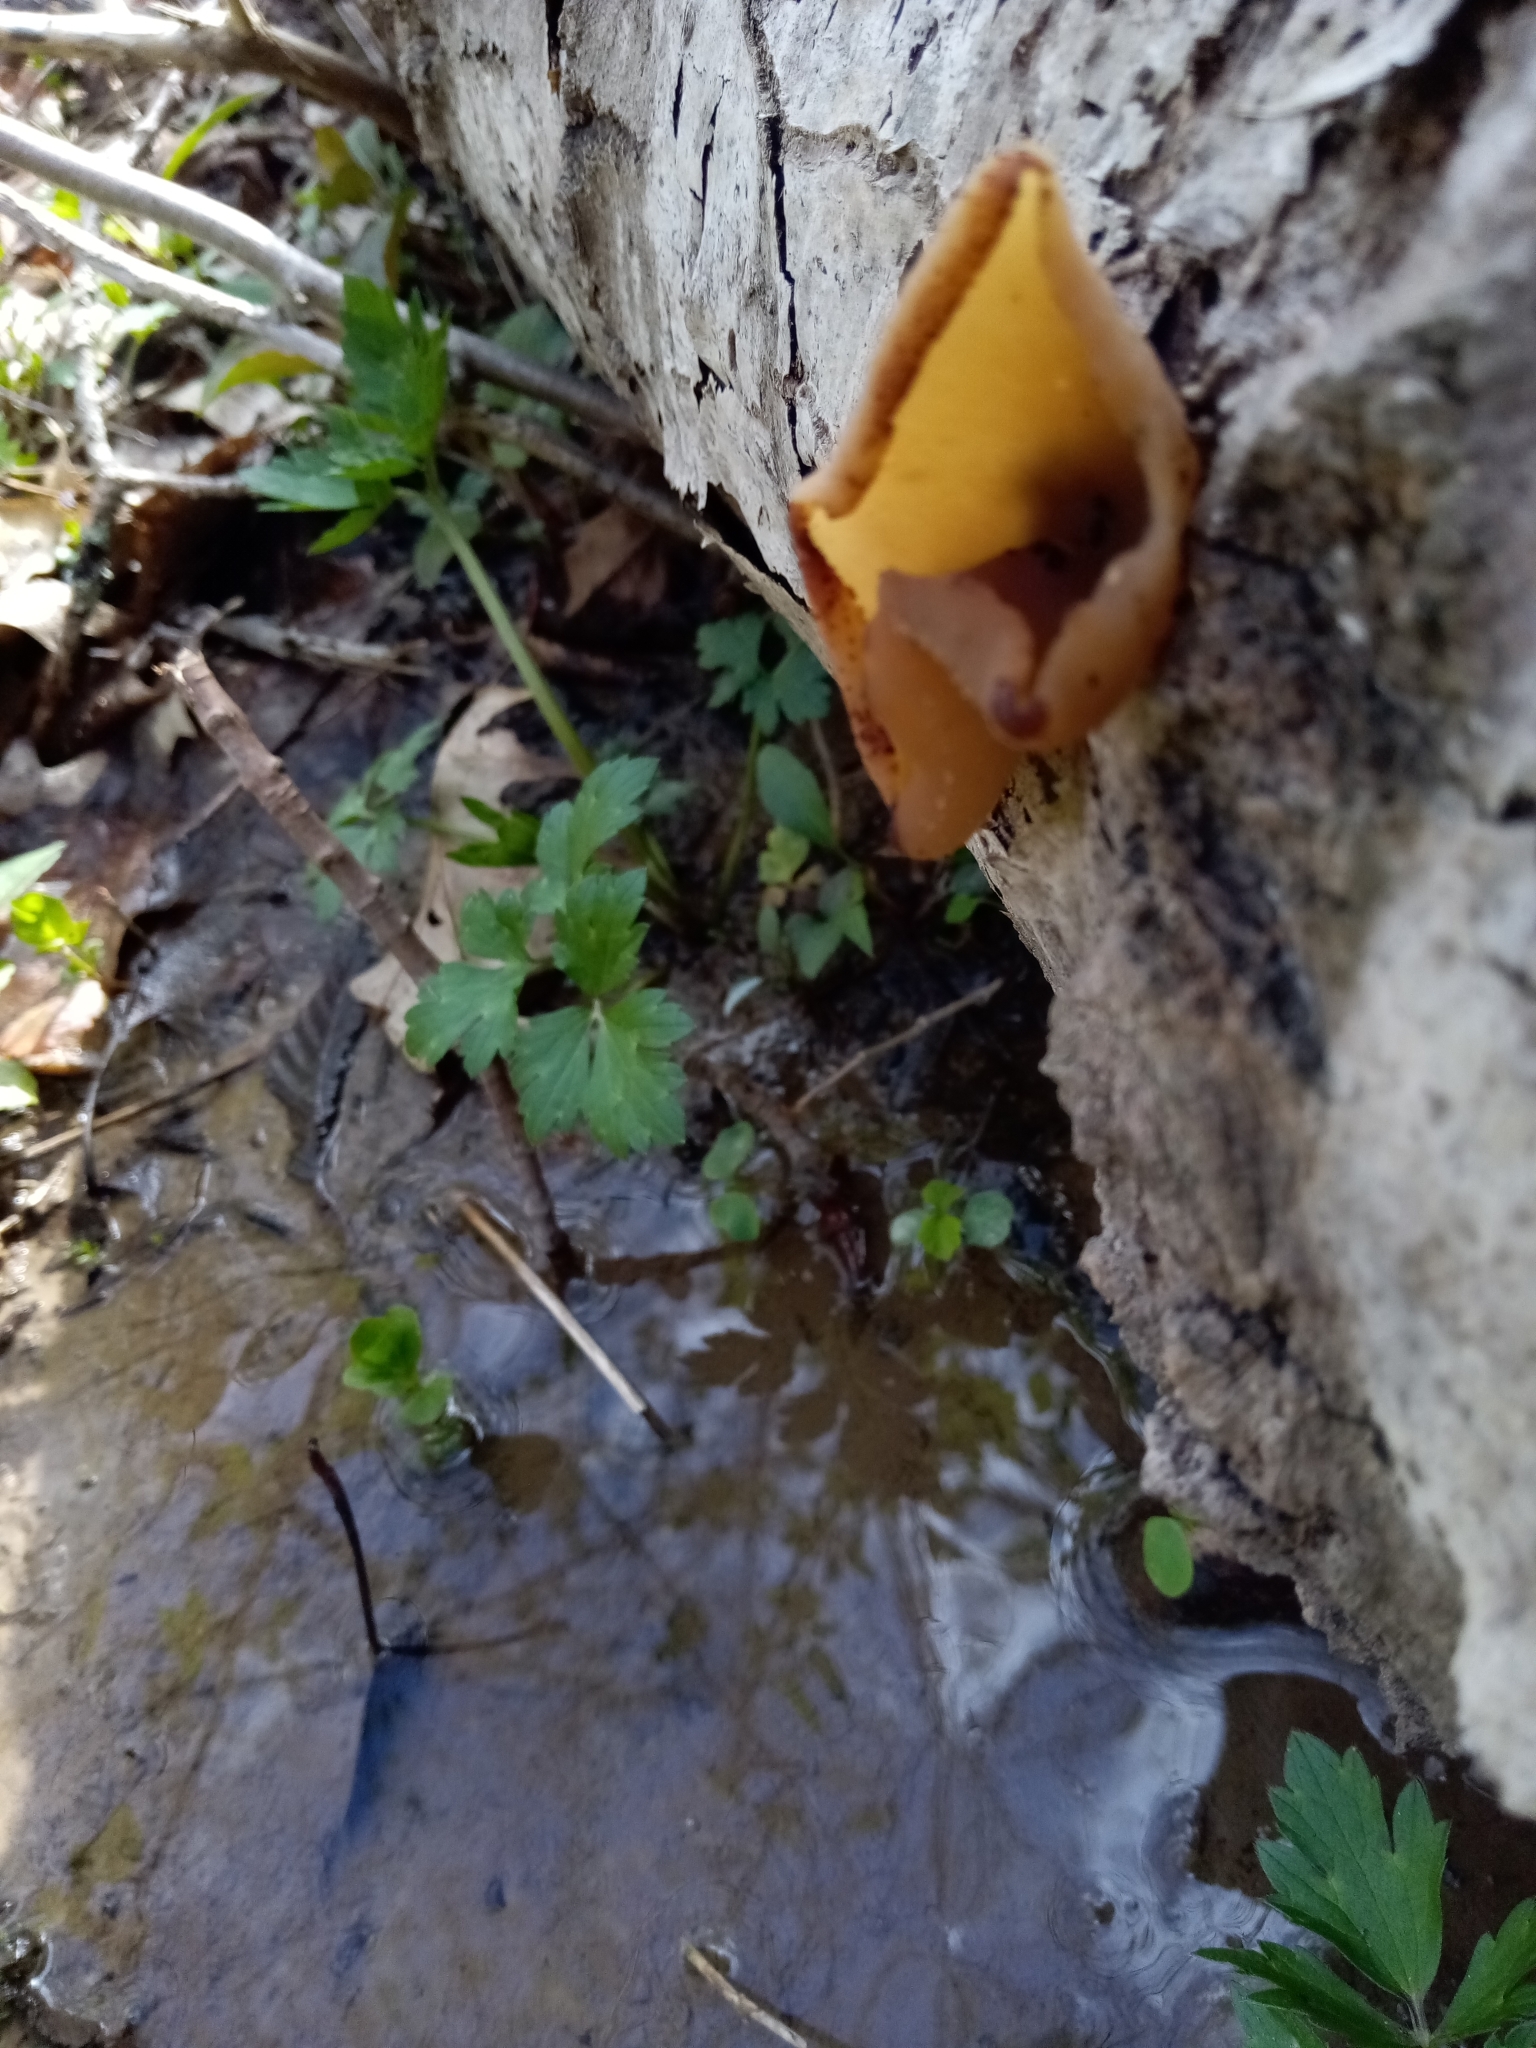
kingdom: Fungi
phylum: Ascomycota
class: Pezizomycetes
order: Pezizales
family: Pezizaceae
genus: Peziza
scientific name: Peziza varia
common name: Layered cup
